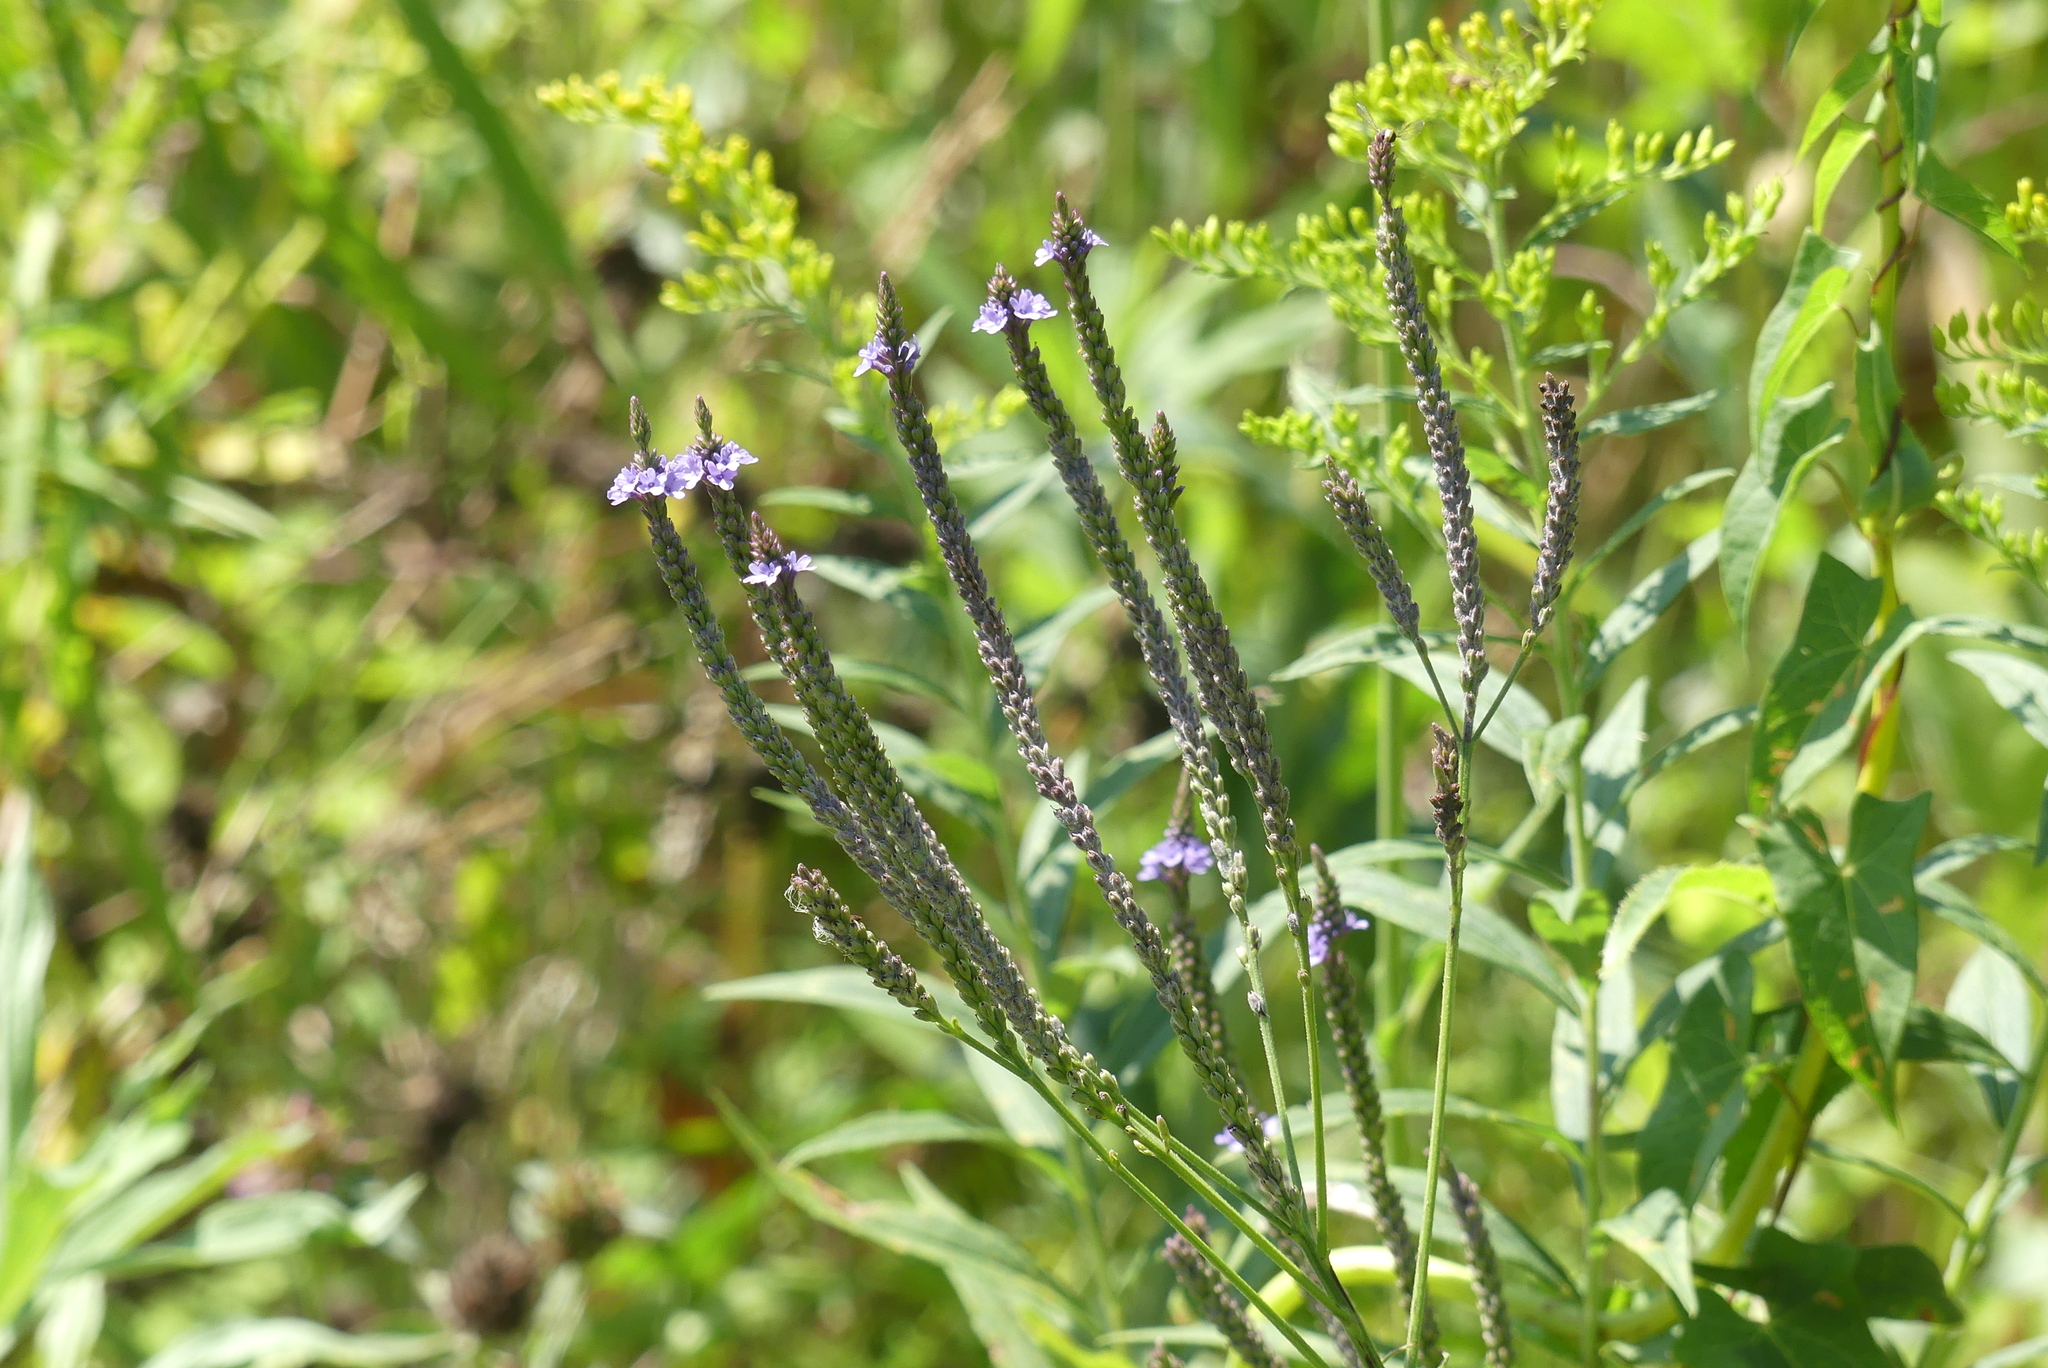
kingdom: Plantae
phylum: Tracheophyta
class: Magnoliopsida
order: Lamiales
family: Verbenaceae
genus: Verbena
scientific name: Verbena hastata
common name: American blue vervain
